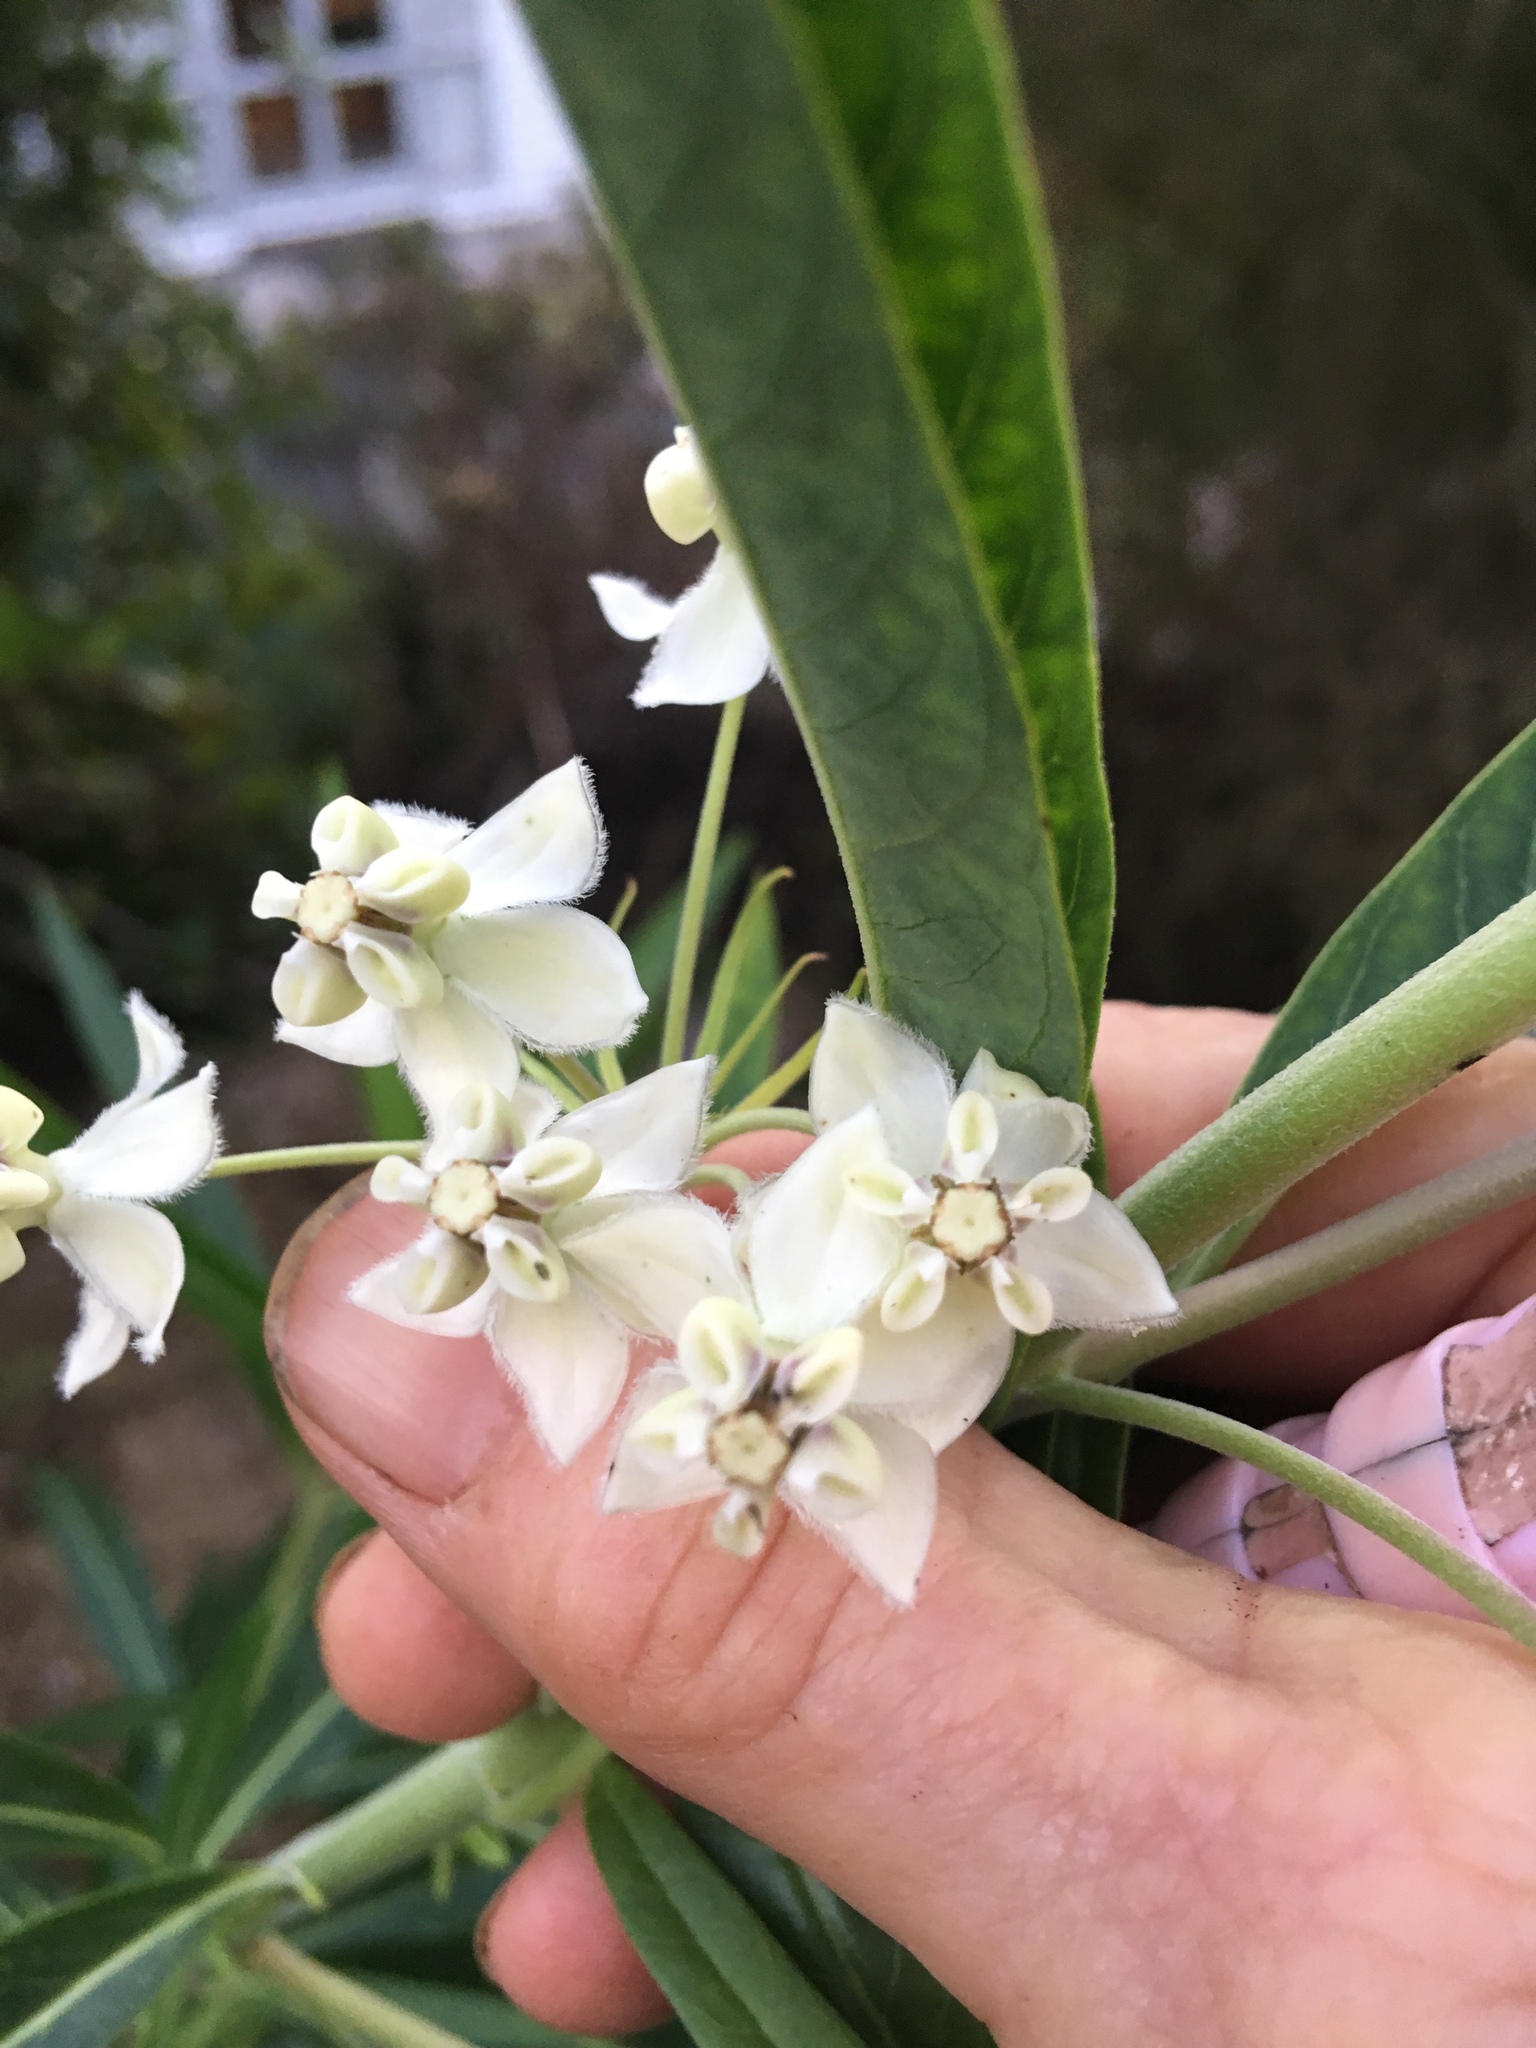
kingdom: Plantae
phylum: Tracheophyta
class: Magnoliopsida
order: Gentianales
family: Apocynaceae
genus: Gomphocarpus
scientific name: Gomphocarpus physocarpus
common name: Balloon cotton bush
